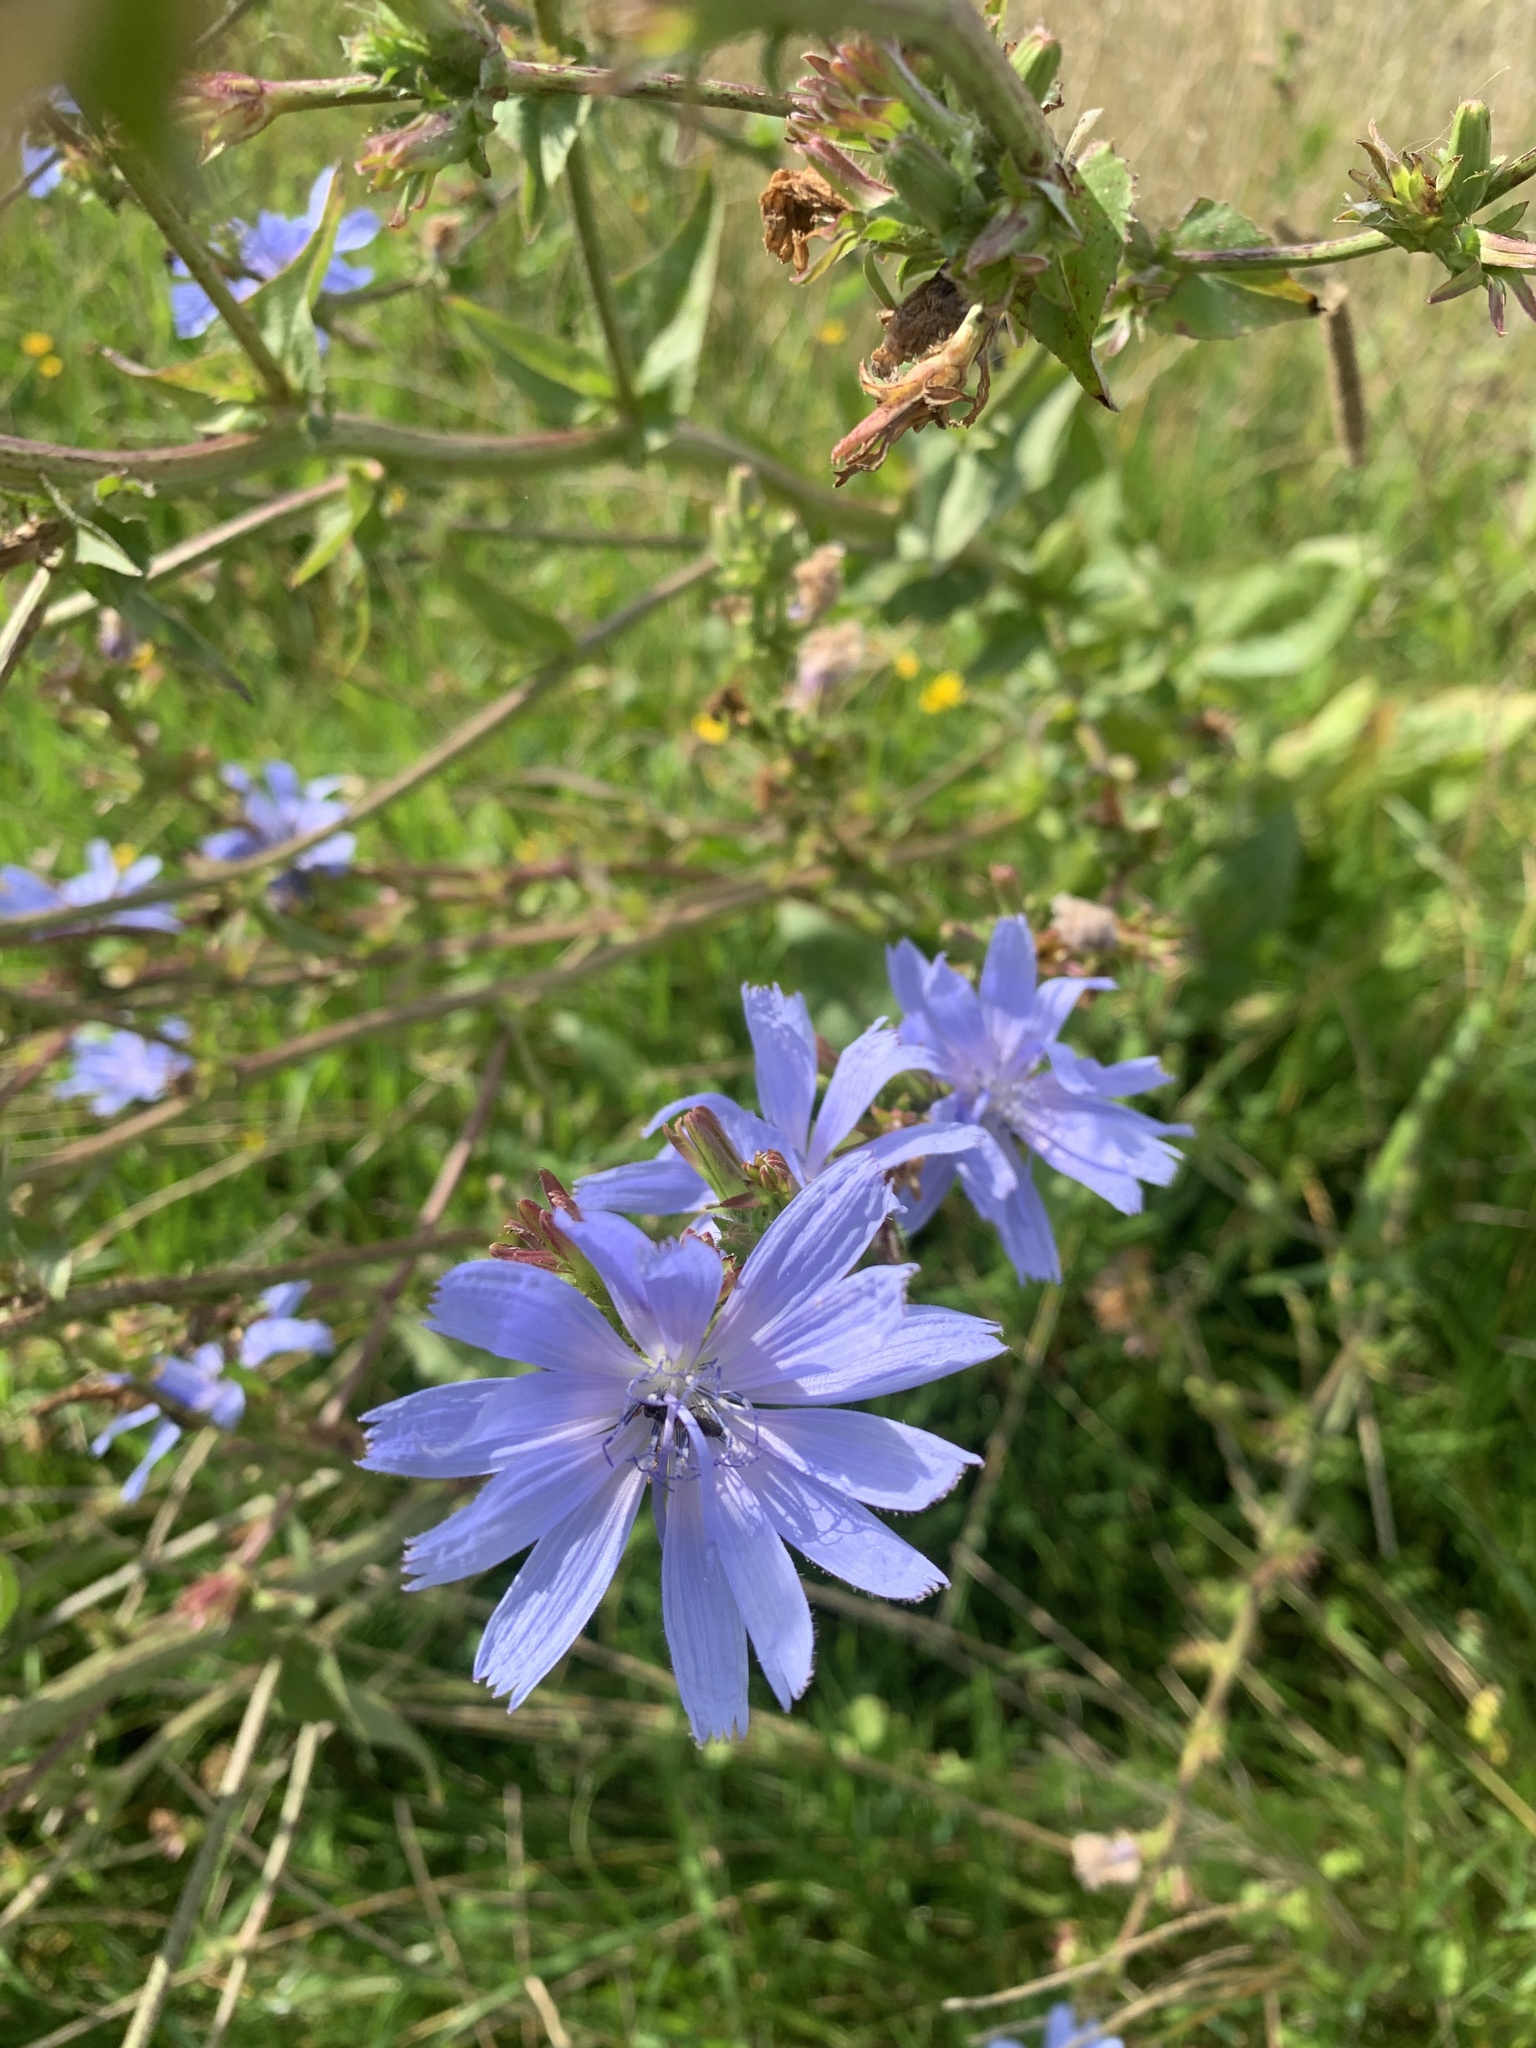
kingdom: Plantae
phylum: Tracheophyta
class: Magnoliopsida
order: Asterales
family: Asteraceae
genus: Cichorium
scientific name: Cichorium intybus
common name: Chicory
